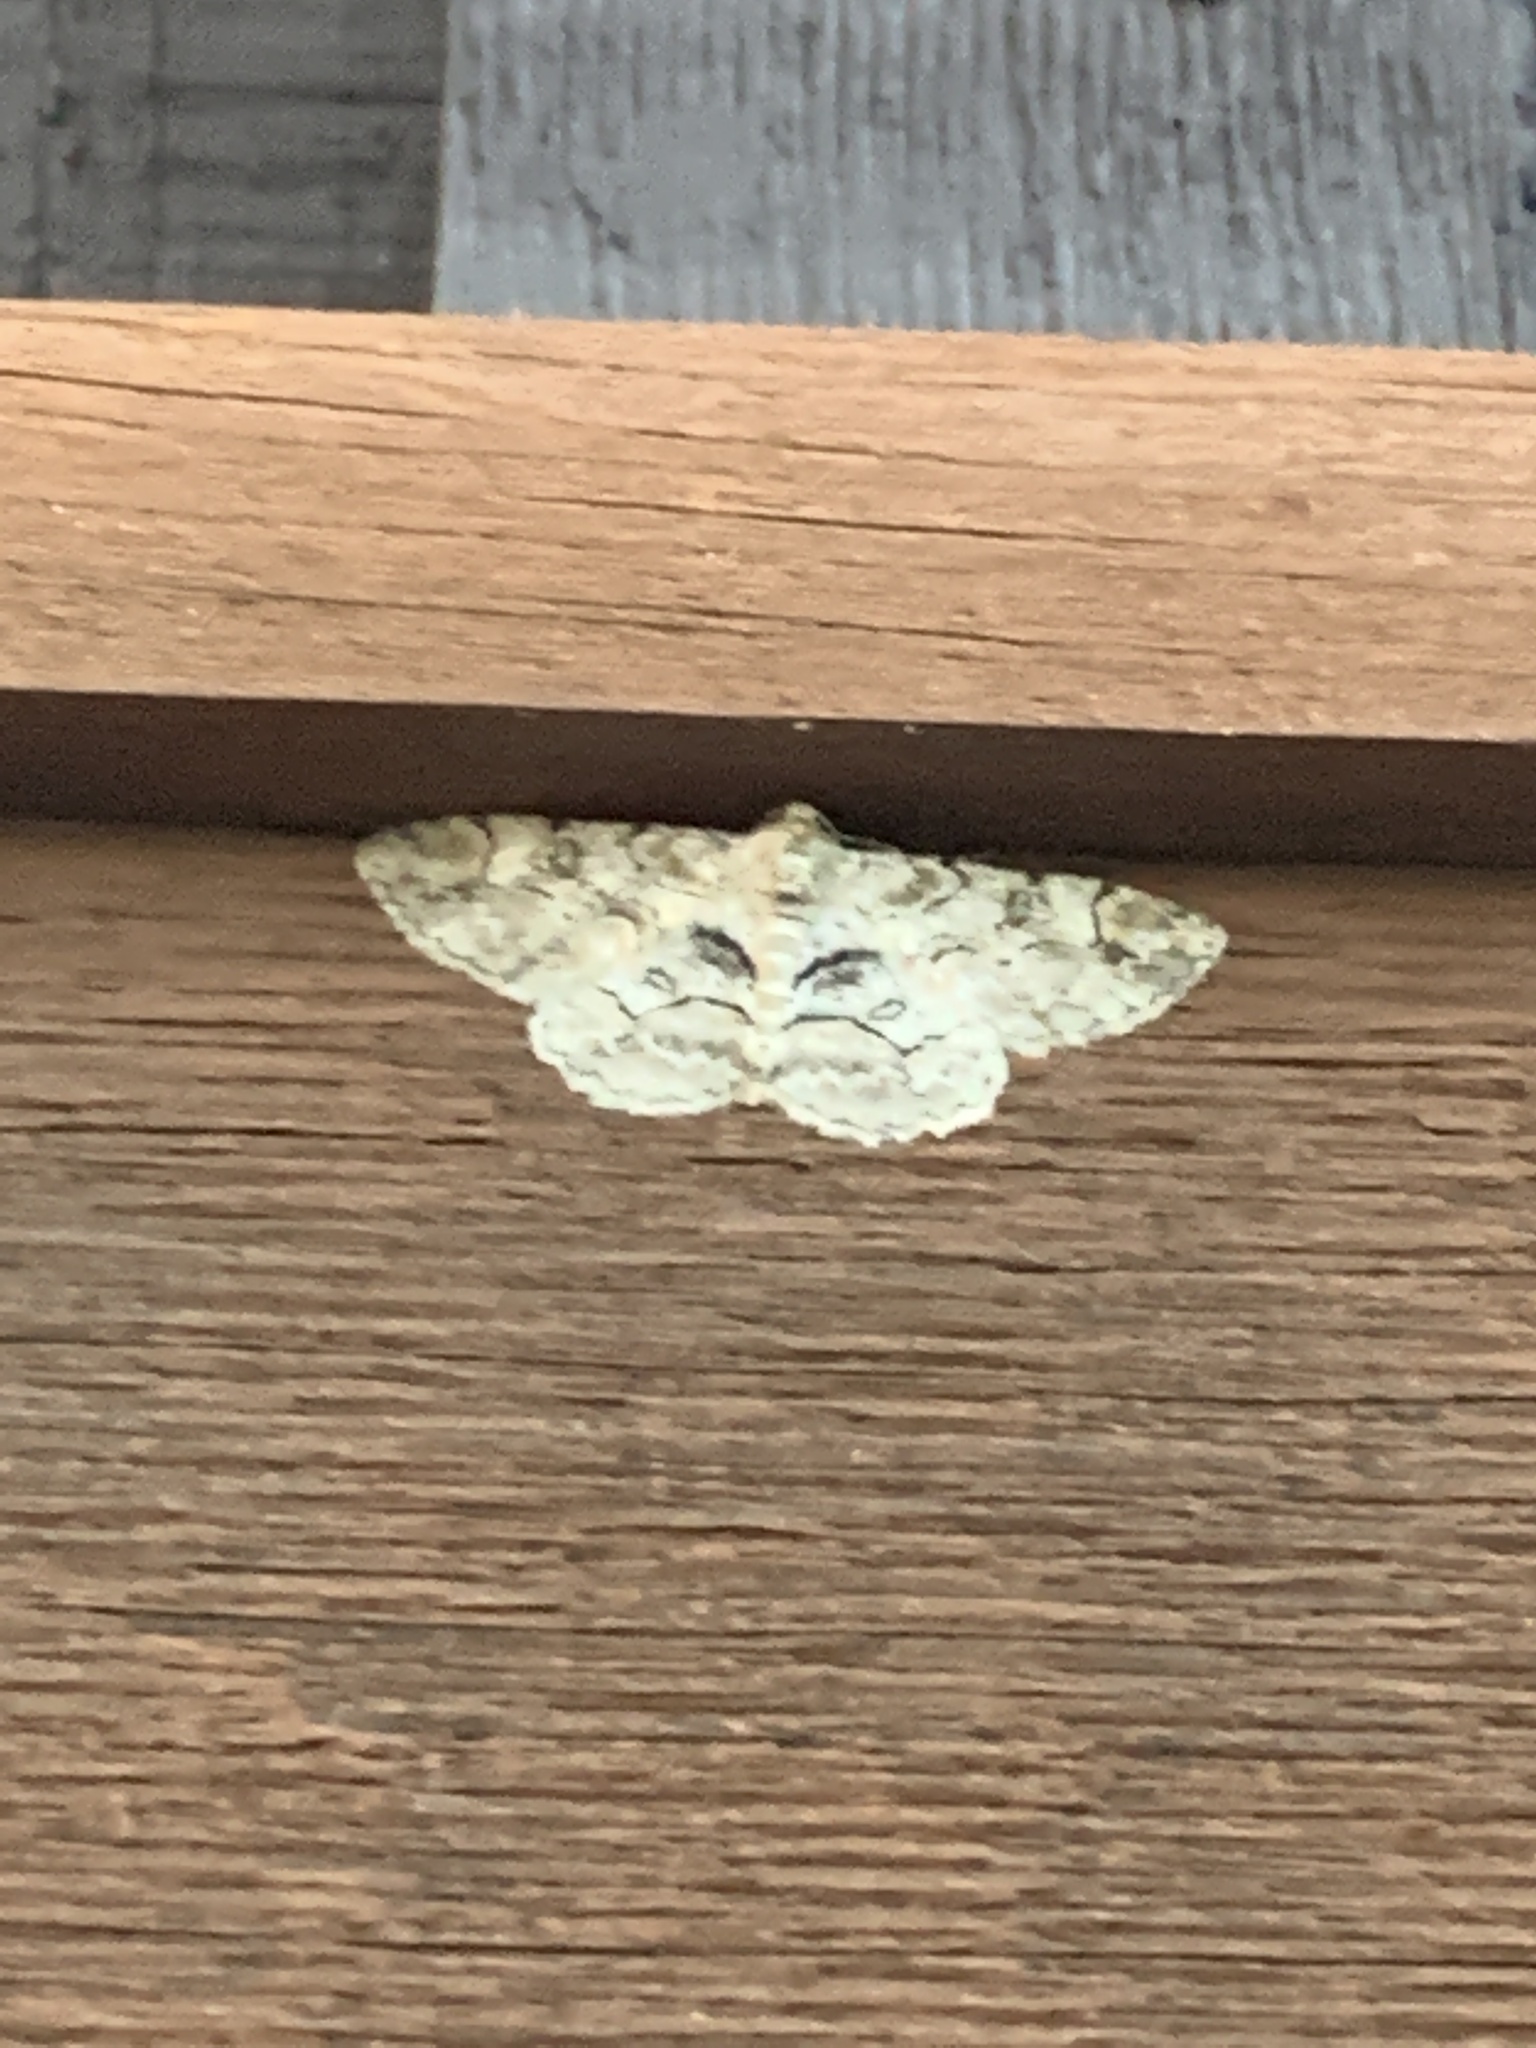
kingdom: Animalia
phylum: Arthropoda
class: Insecta
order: Lepidoptera
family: Geometridae
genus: Iridopsis
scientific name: Iridopsis larvaria
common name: Bent-line gray
